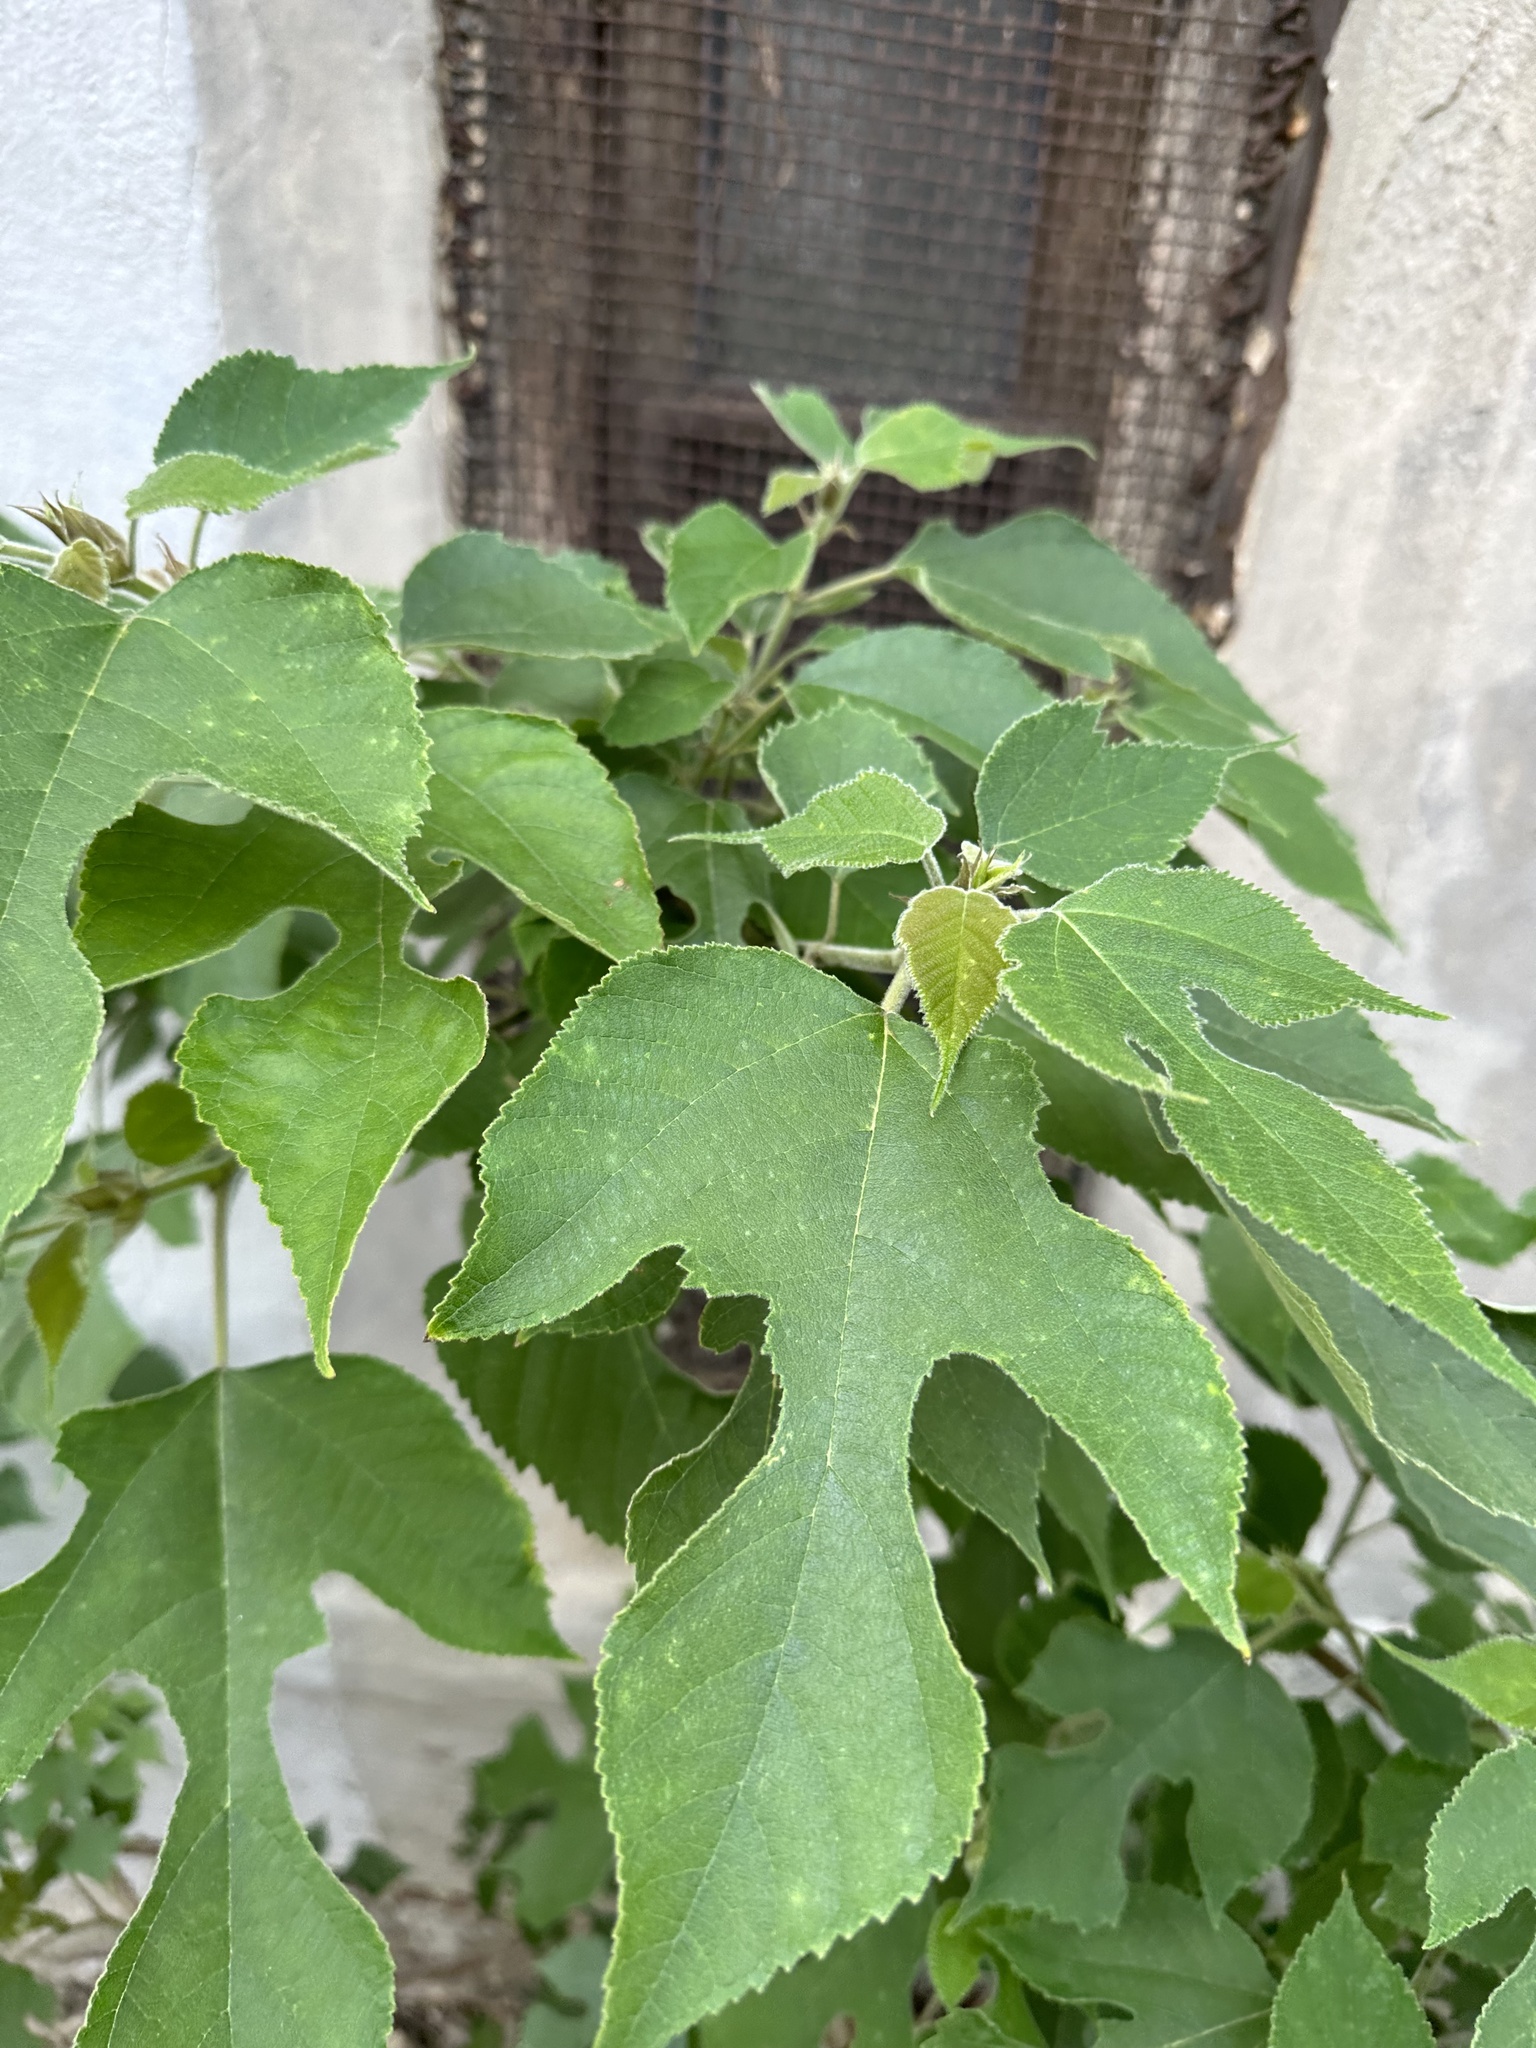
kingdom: Plantae
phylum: Tracheophyta
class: Magnoliopsida
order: Rosales
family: Moraceae
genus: Broussonetia
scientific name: Broussonetia papyrifera
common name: Paper mulberry
